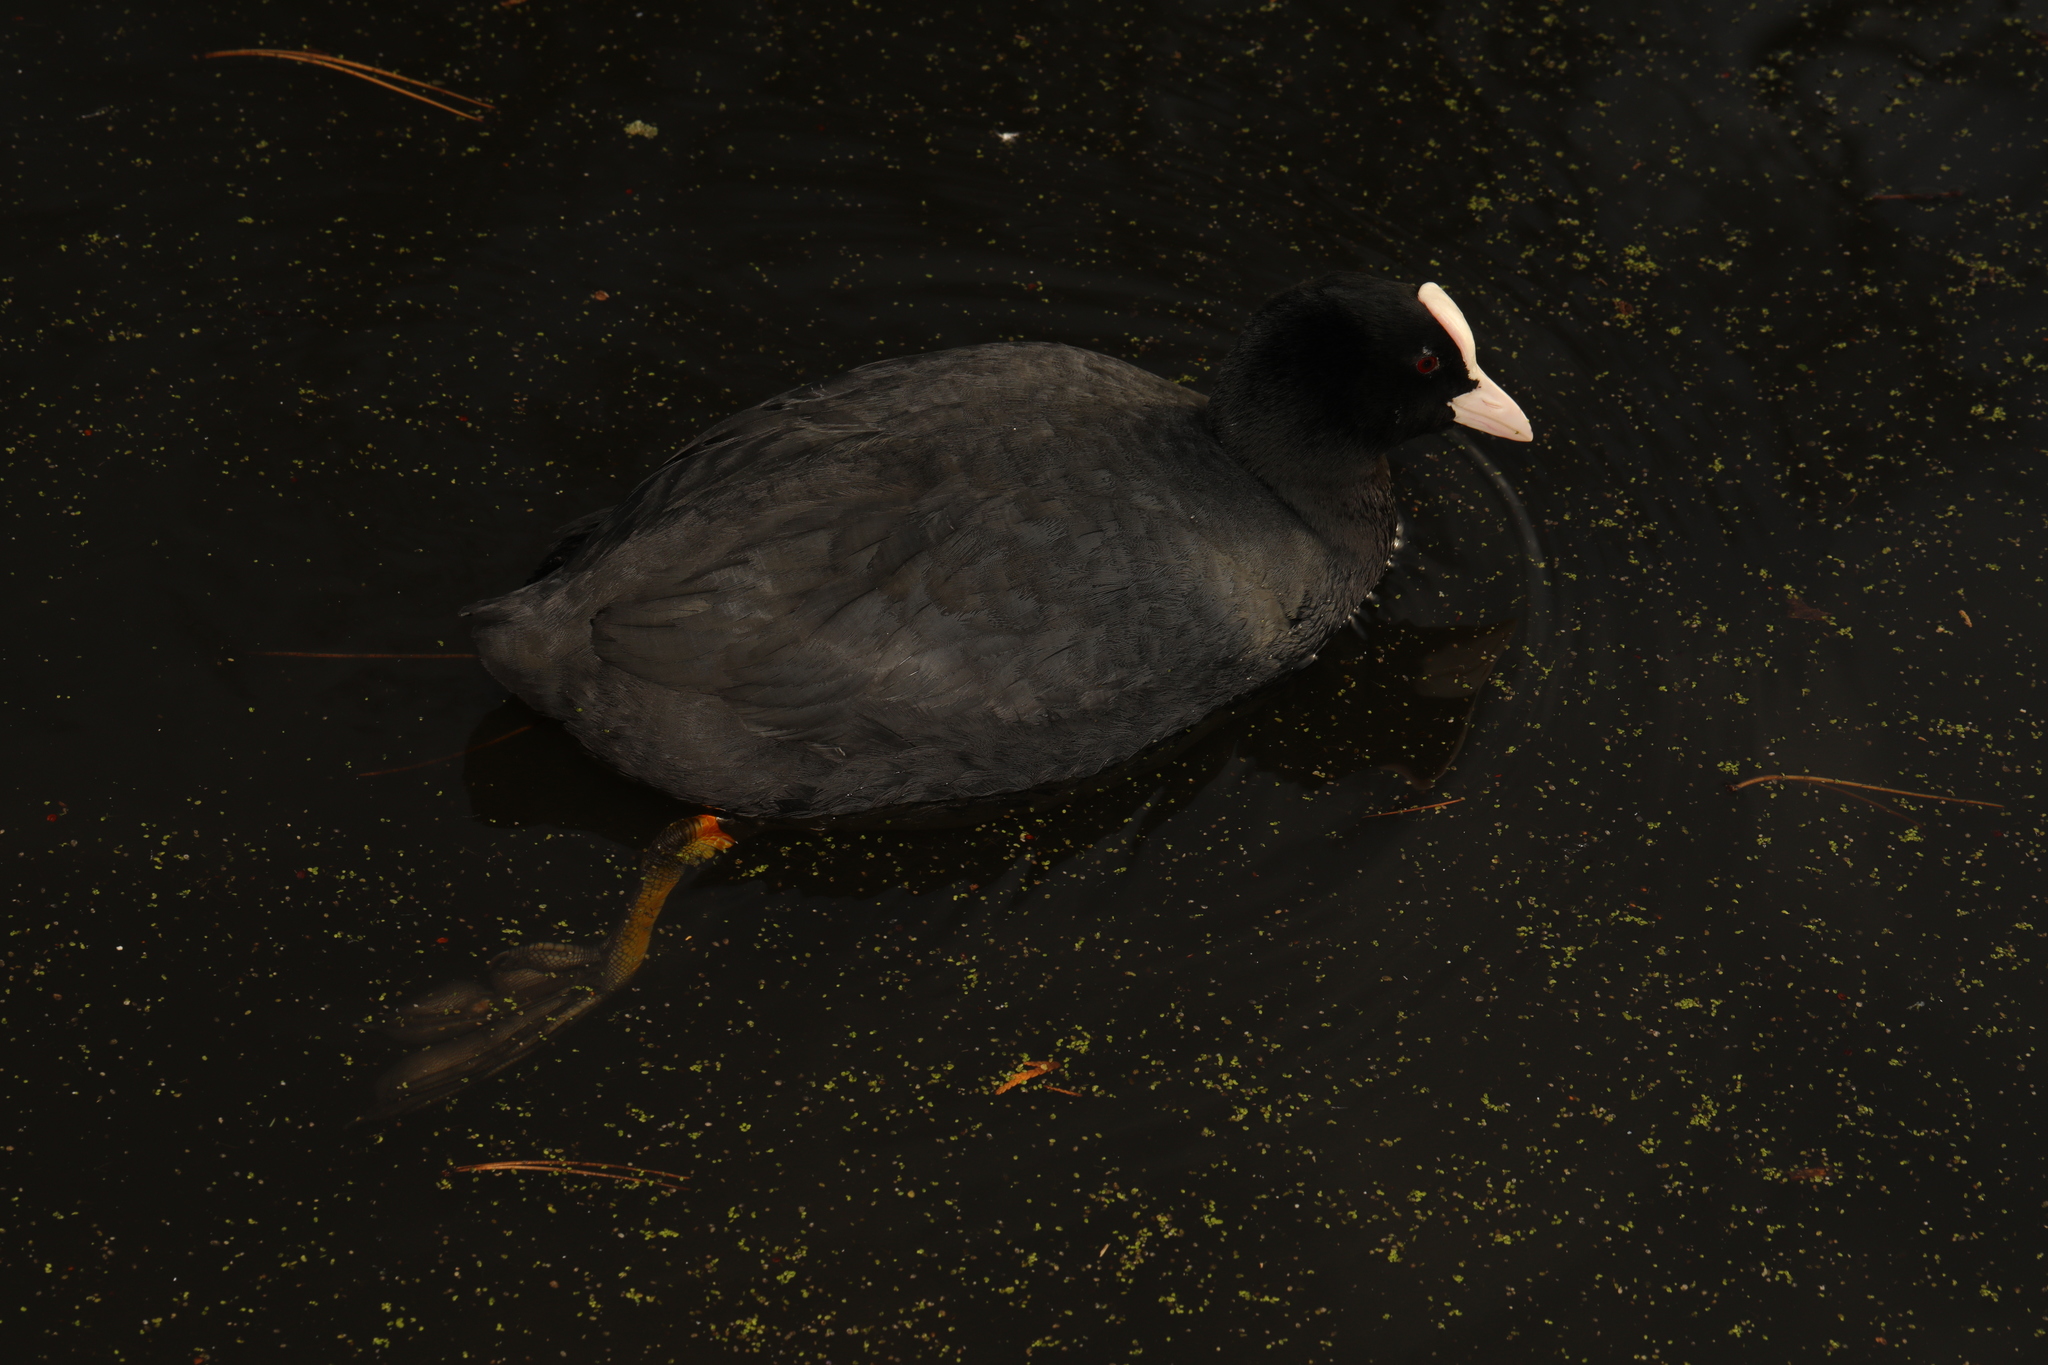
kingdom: Animalia
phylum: Chordata
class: Aves
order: Gruiformes
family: Rallidae
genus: Fulica
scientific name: Fulica atra
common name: Eurasian coot
